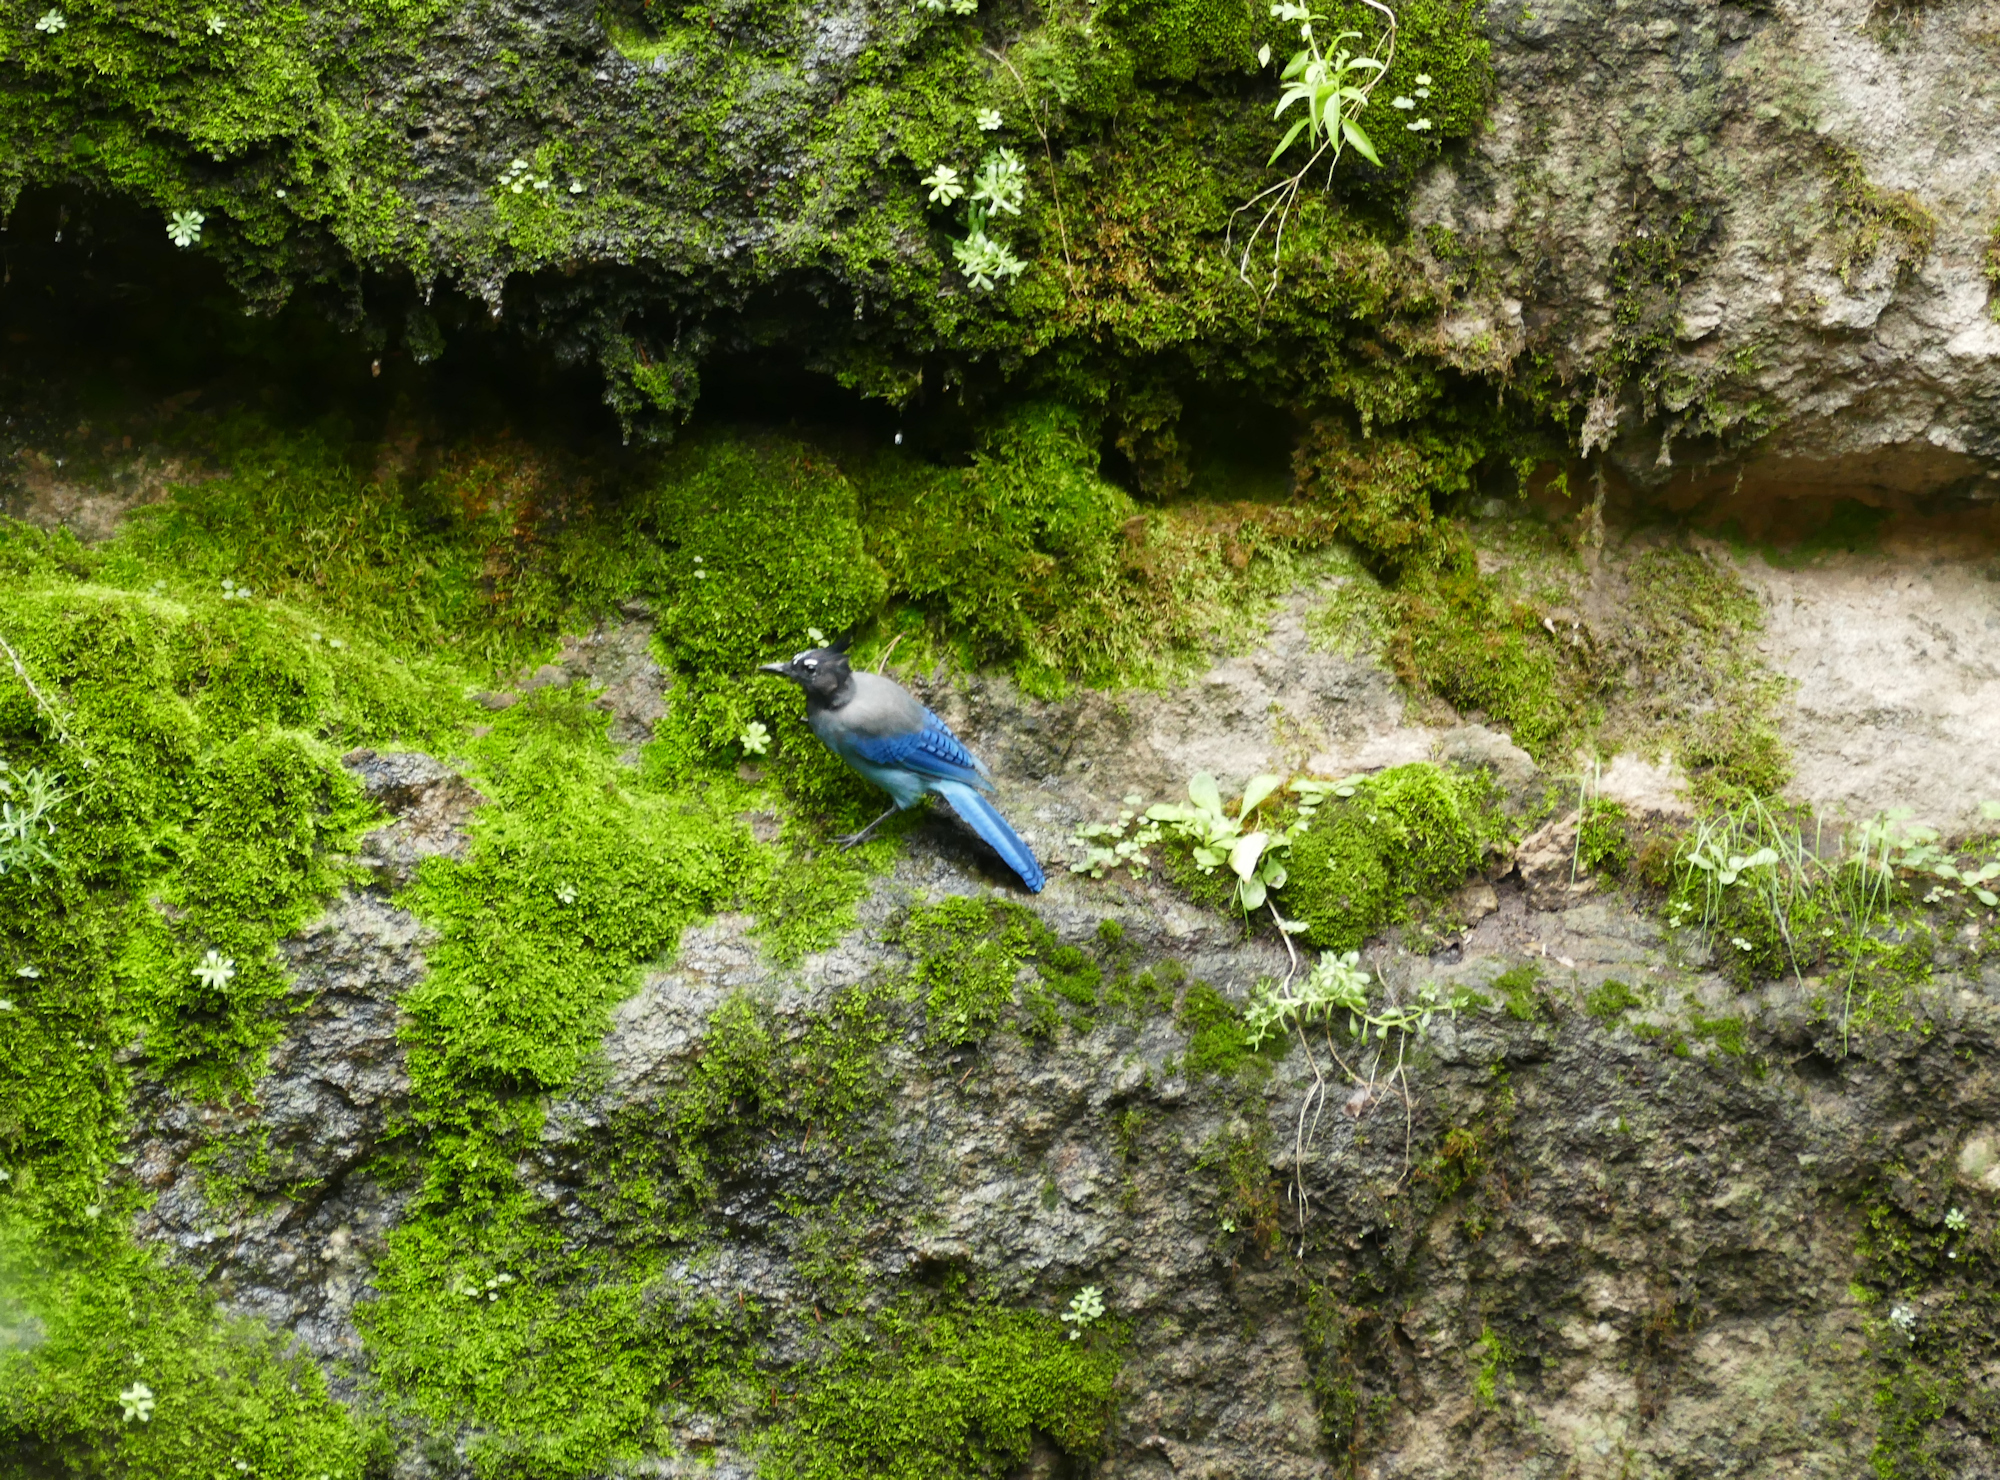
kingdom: Animalia
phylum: Chordata
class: Aves
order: Passeriformes
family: Corvidae
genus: Cyanocitta
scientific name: Cyanocitta stelleri
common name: Steller's jay
